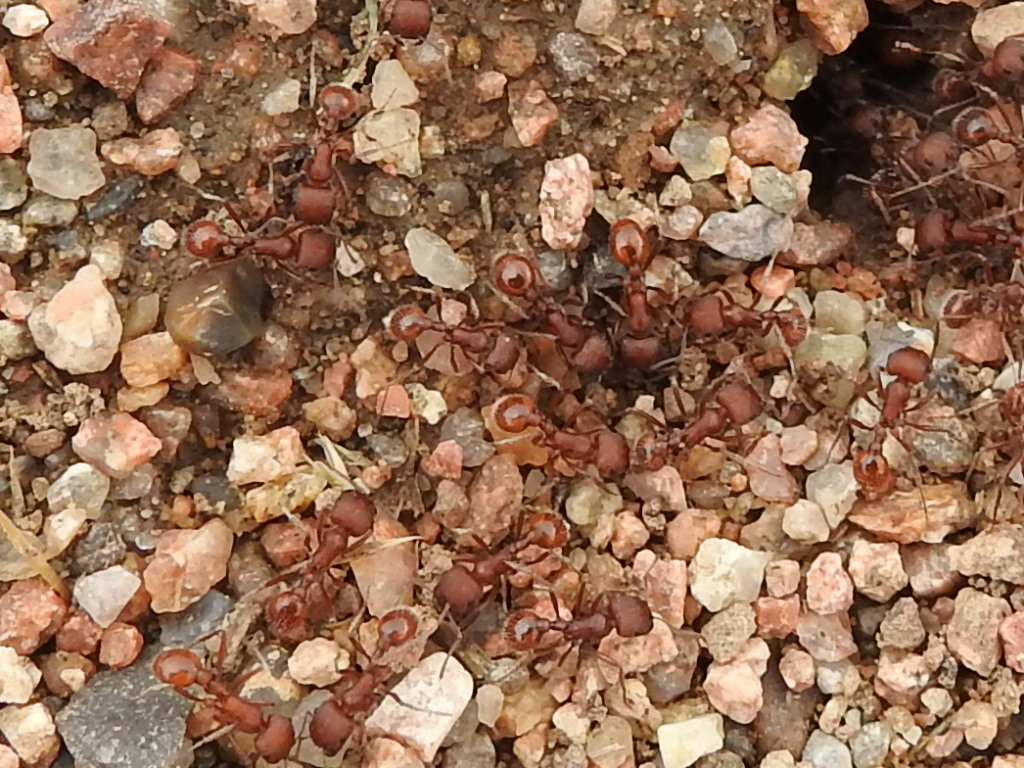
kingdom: Animalia
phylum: Arthropoda
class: Insecta
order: Hymenoptera
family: Formicidae
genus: Pogonomyrmex
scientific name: Pogonomyrmex
